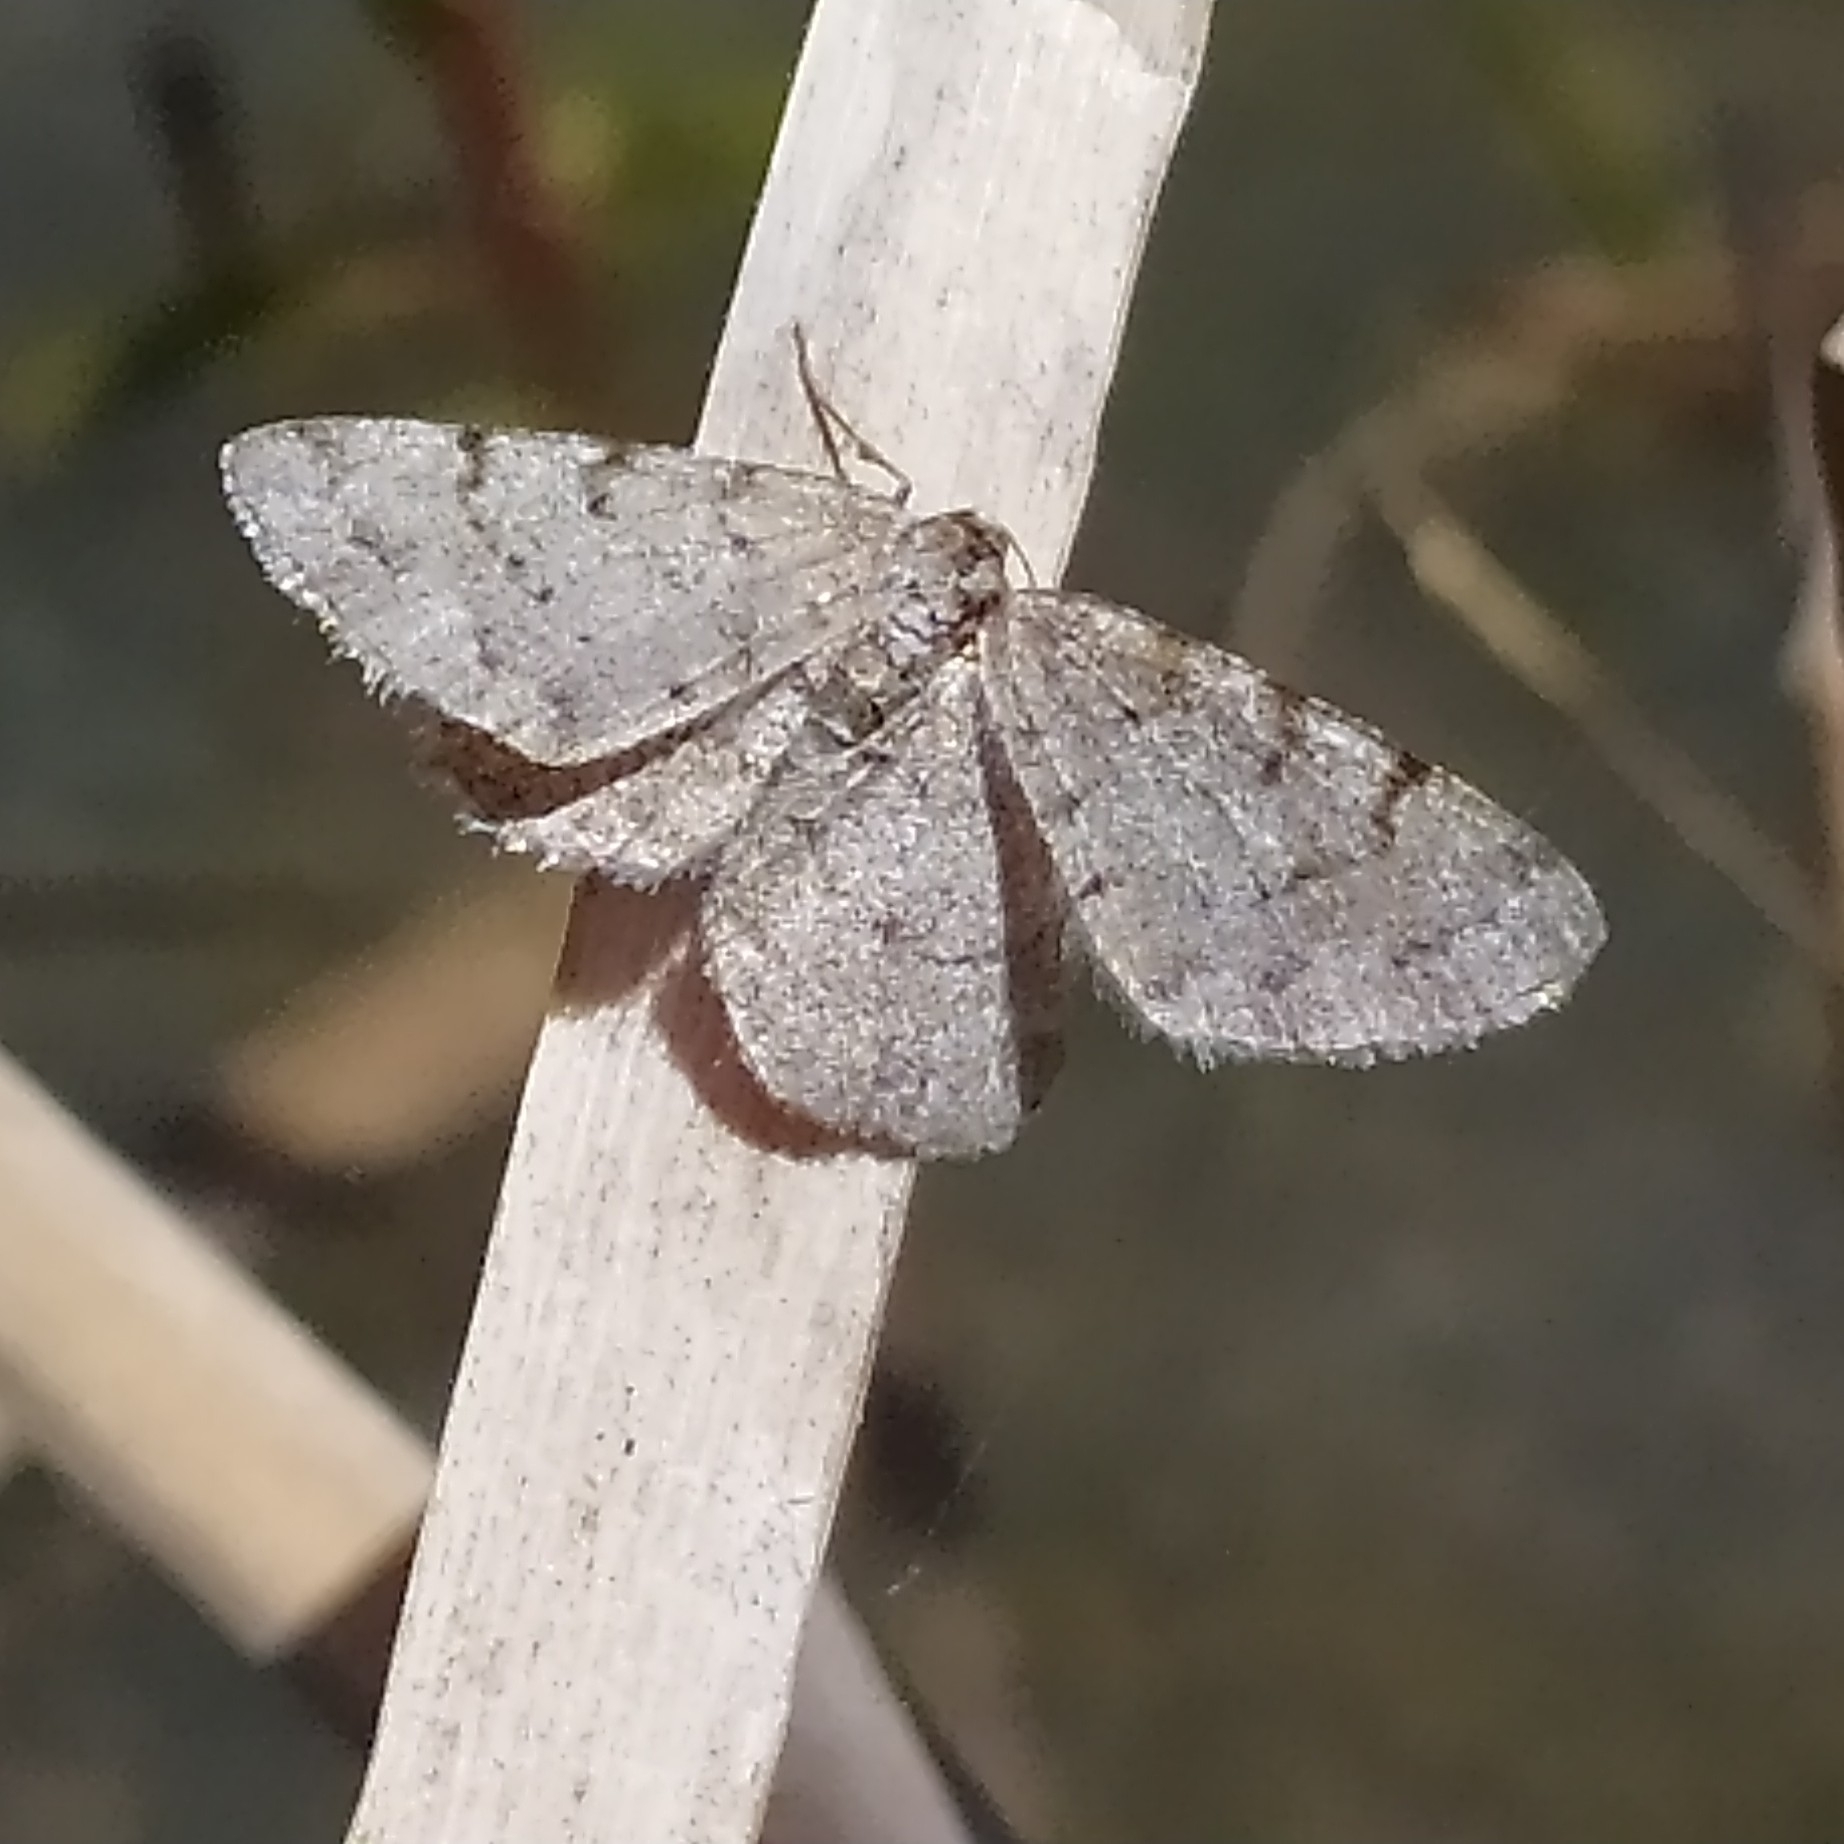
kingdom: Animalia
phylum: Arthropoda
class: Insecta
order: Lepidoptera
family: Geometridae
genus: Aethalura
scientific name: Aethalura punctulata
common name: Grey birch
